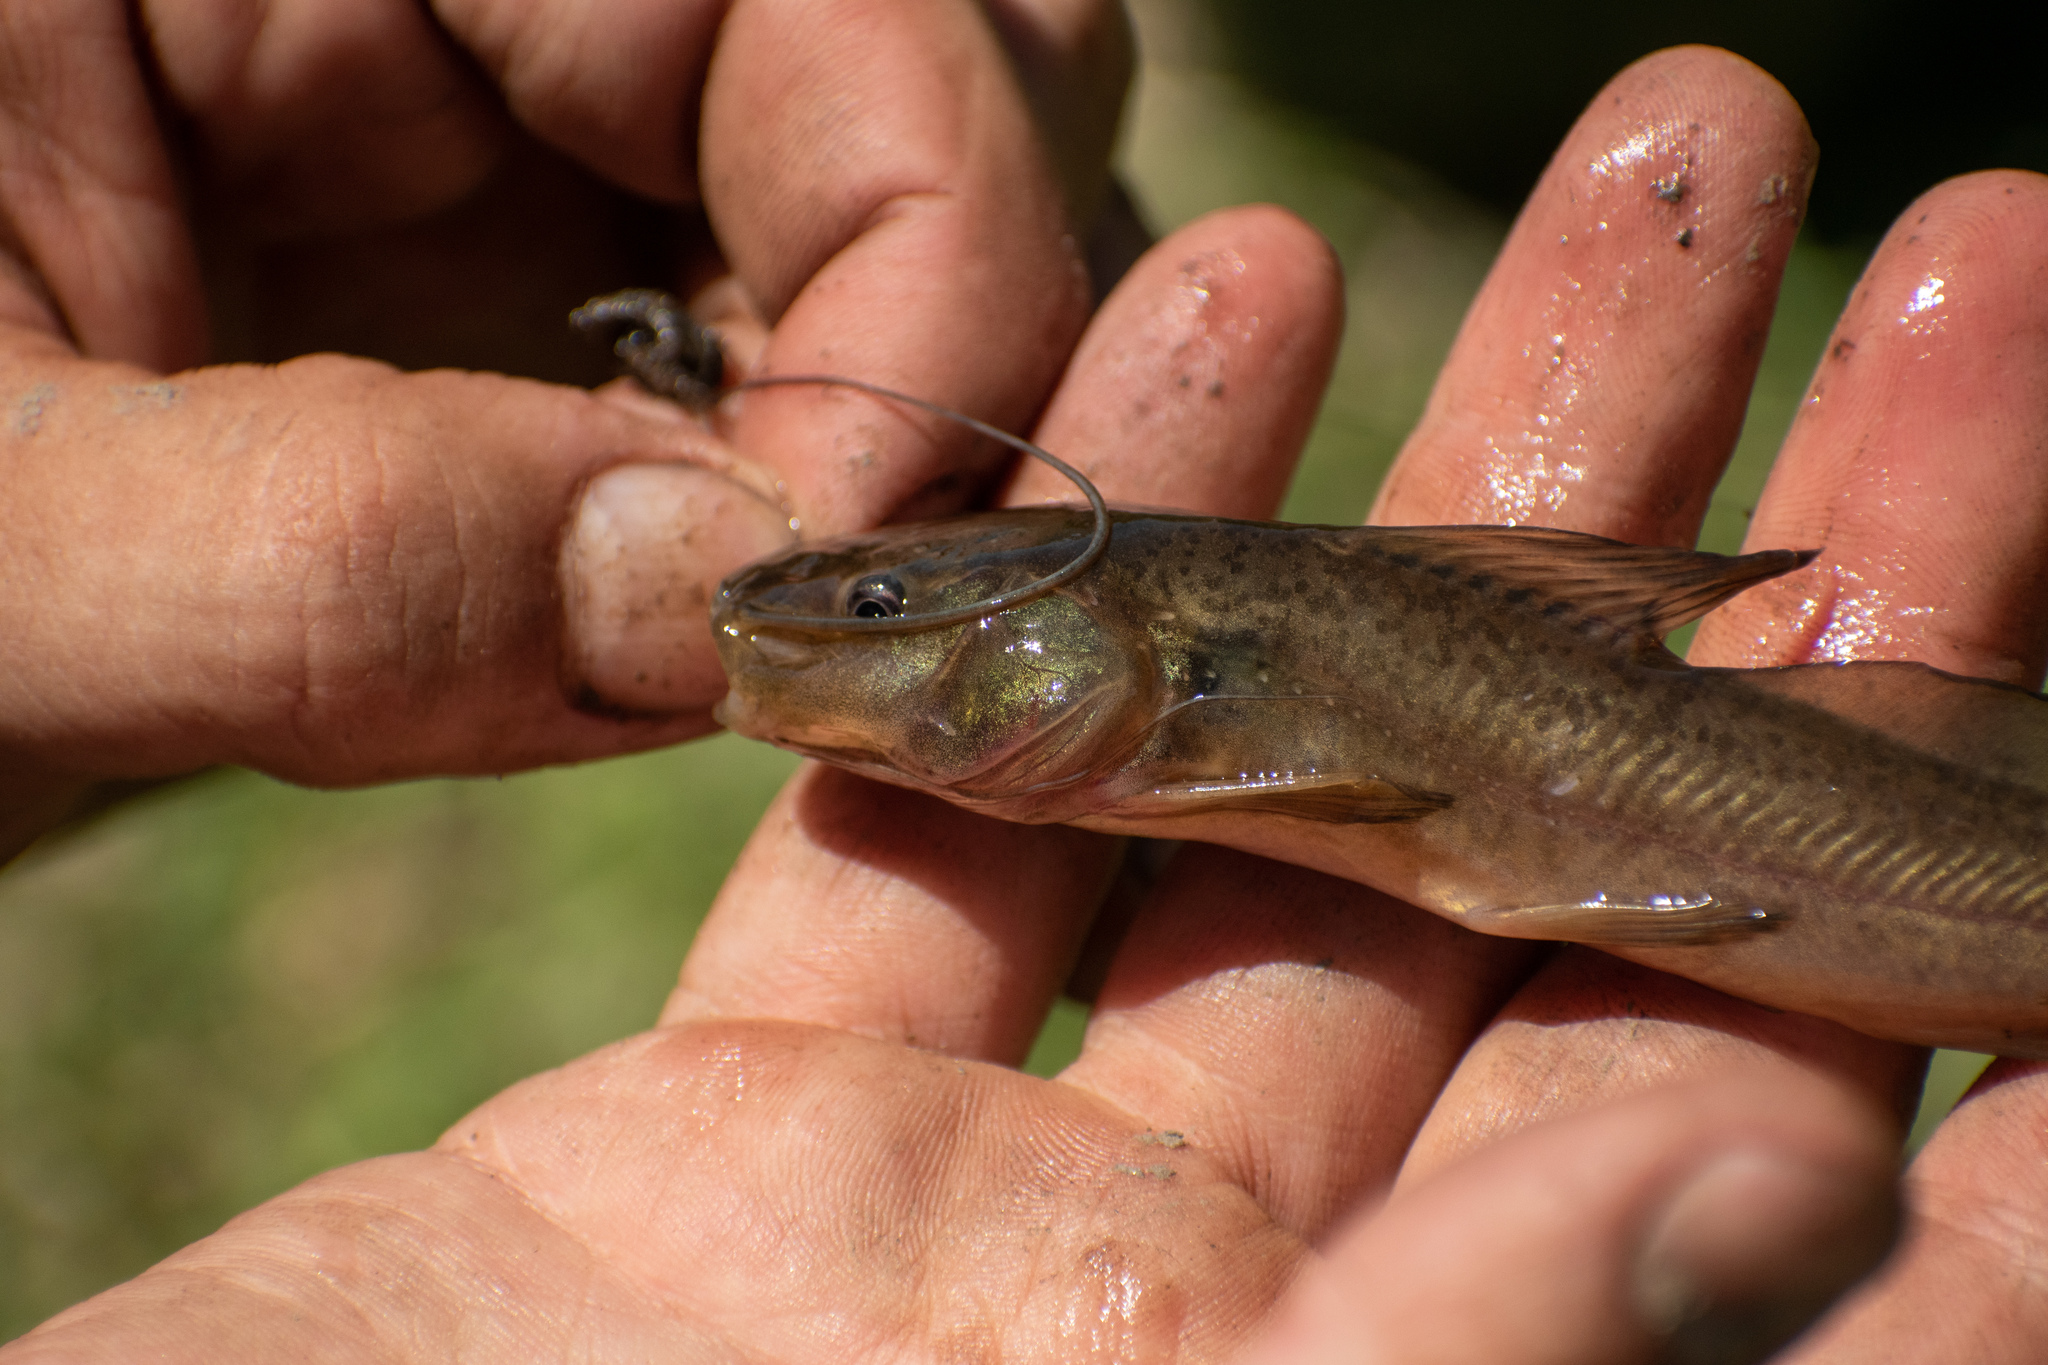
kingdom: Animalia
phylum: Chordata
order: Siluriformes
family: Heptapteridae
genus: Rhamdia
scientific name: Rhamdia quelen
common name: Catfish
